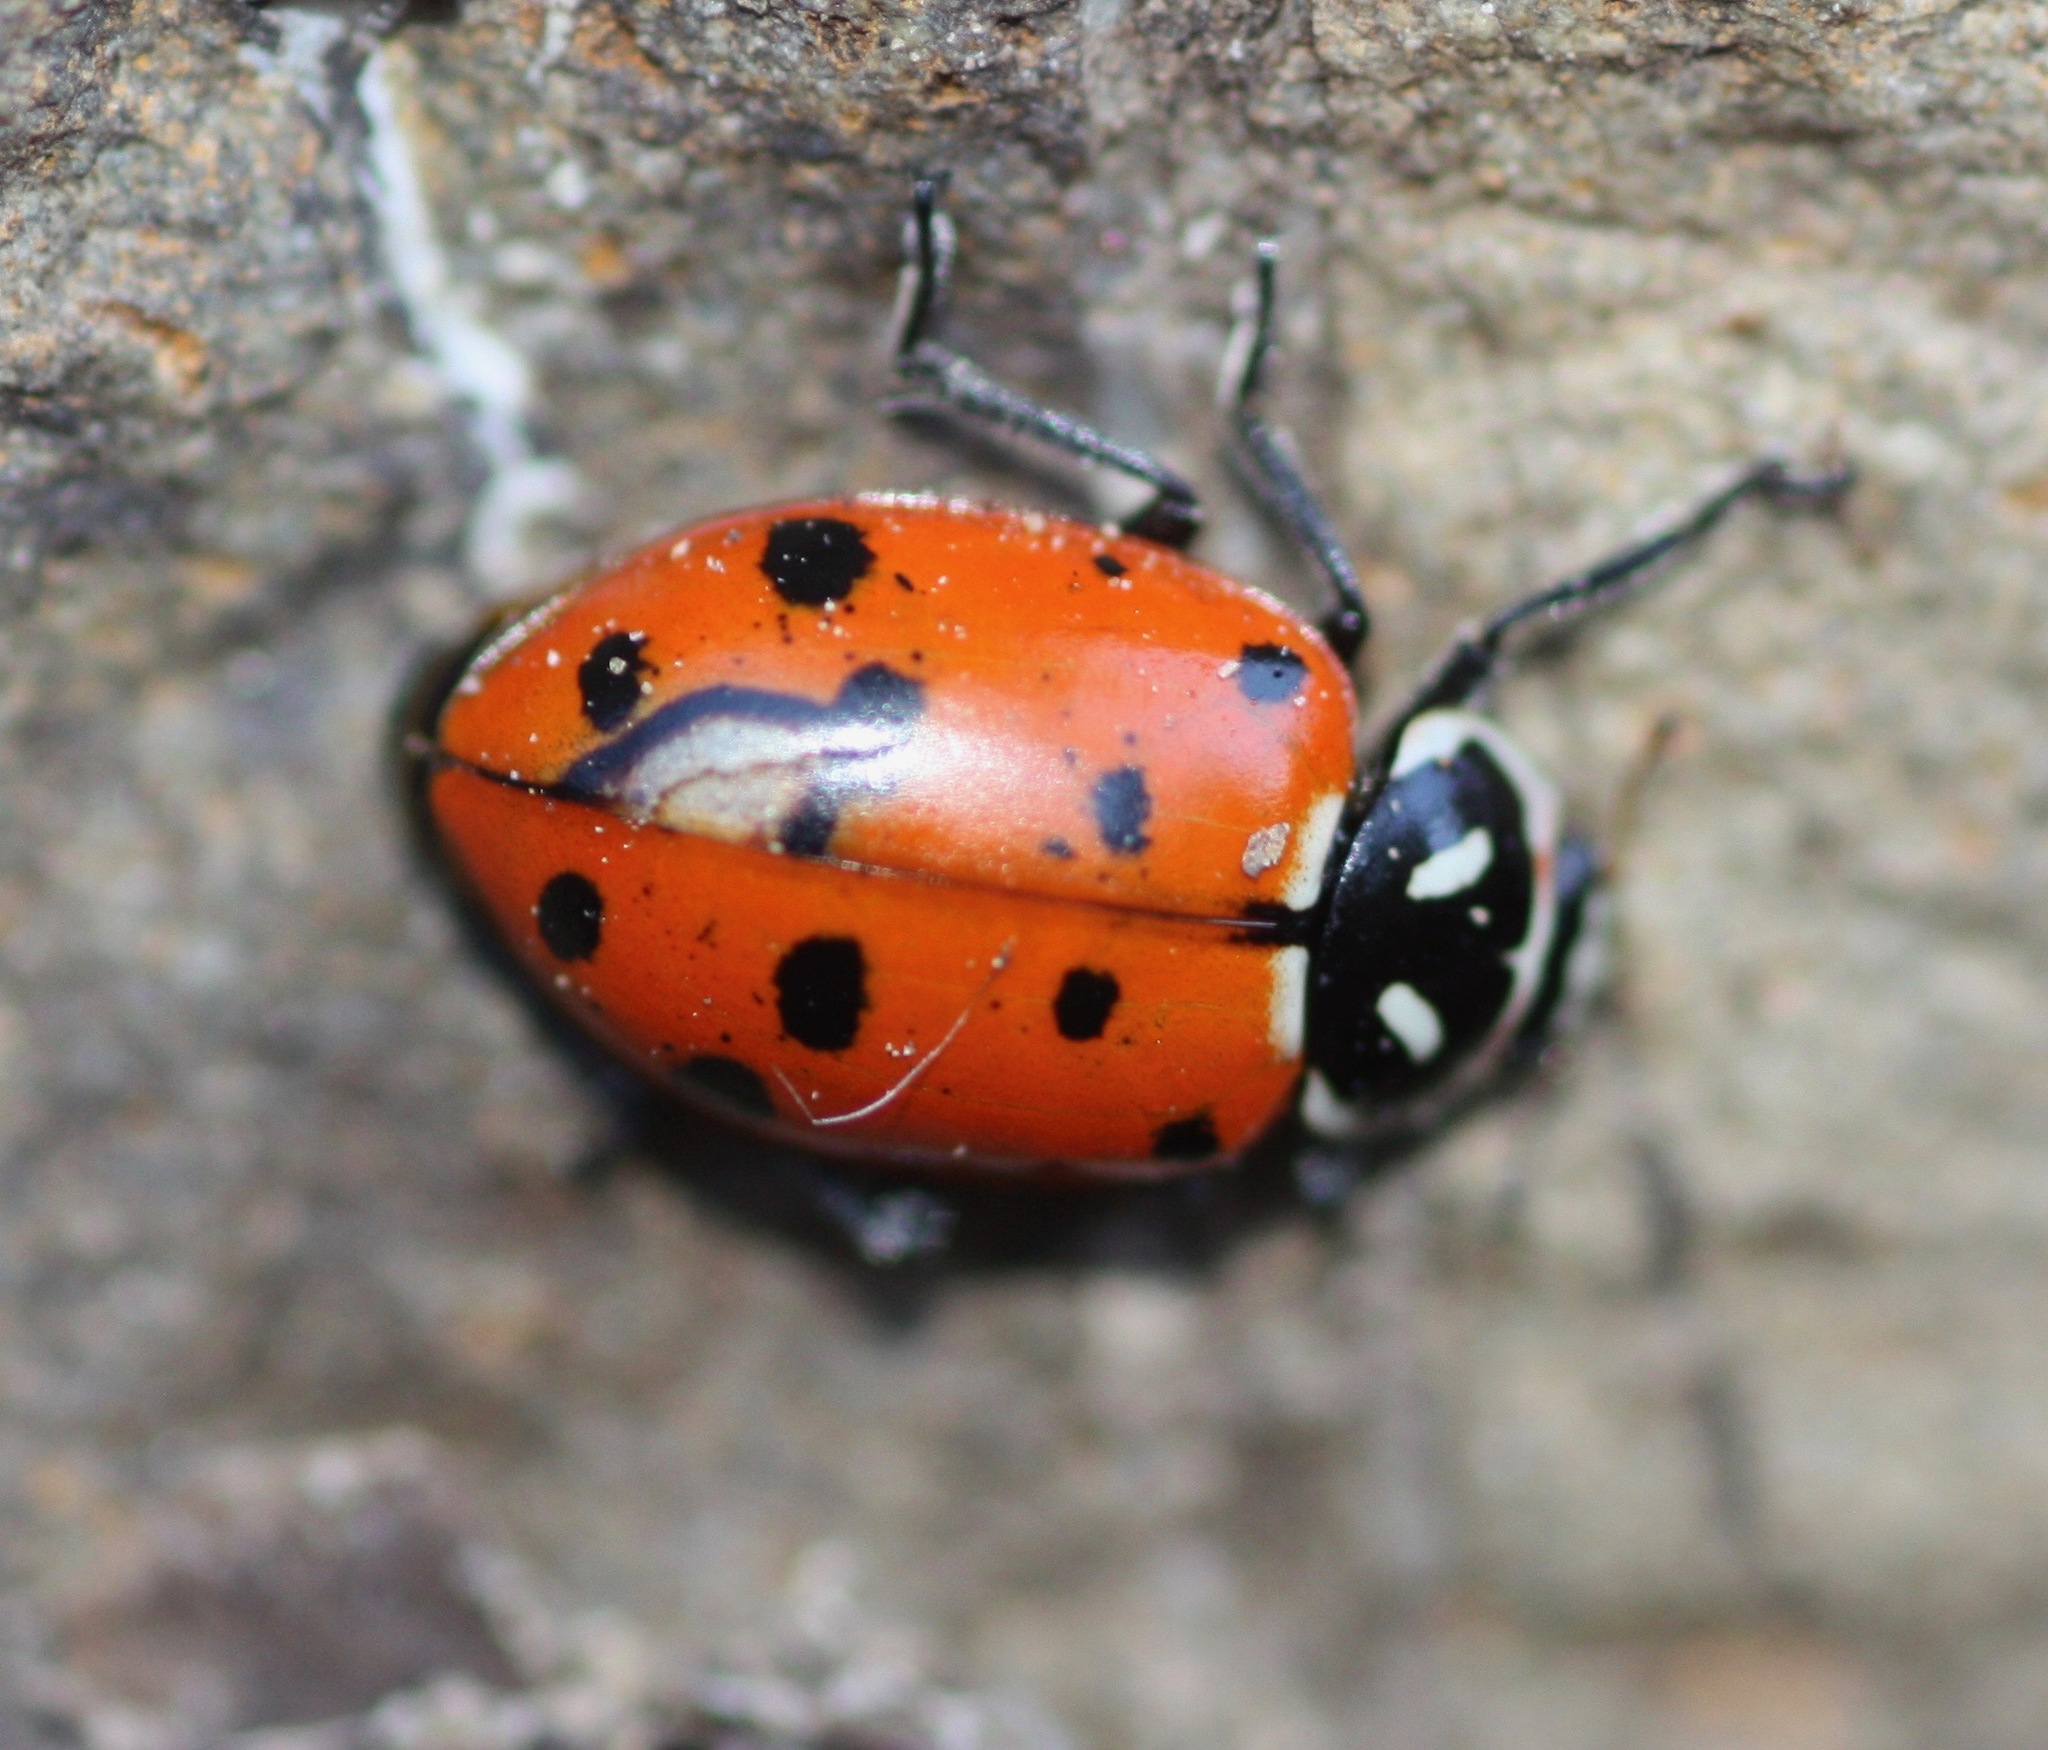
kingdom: Animalia
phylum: Arthropoda
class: Insecta
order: Coleoptera
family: Coccinellidae
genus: Hippodamia
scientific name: Hippodamia convergens
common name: Convergent lady beetle
